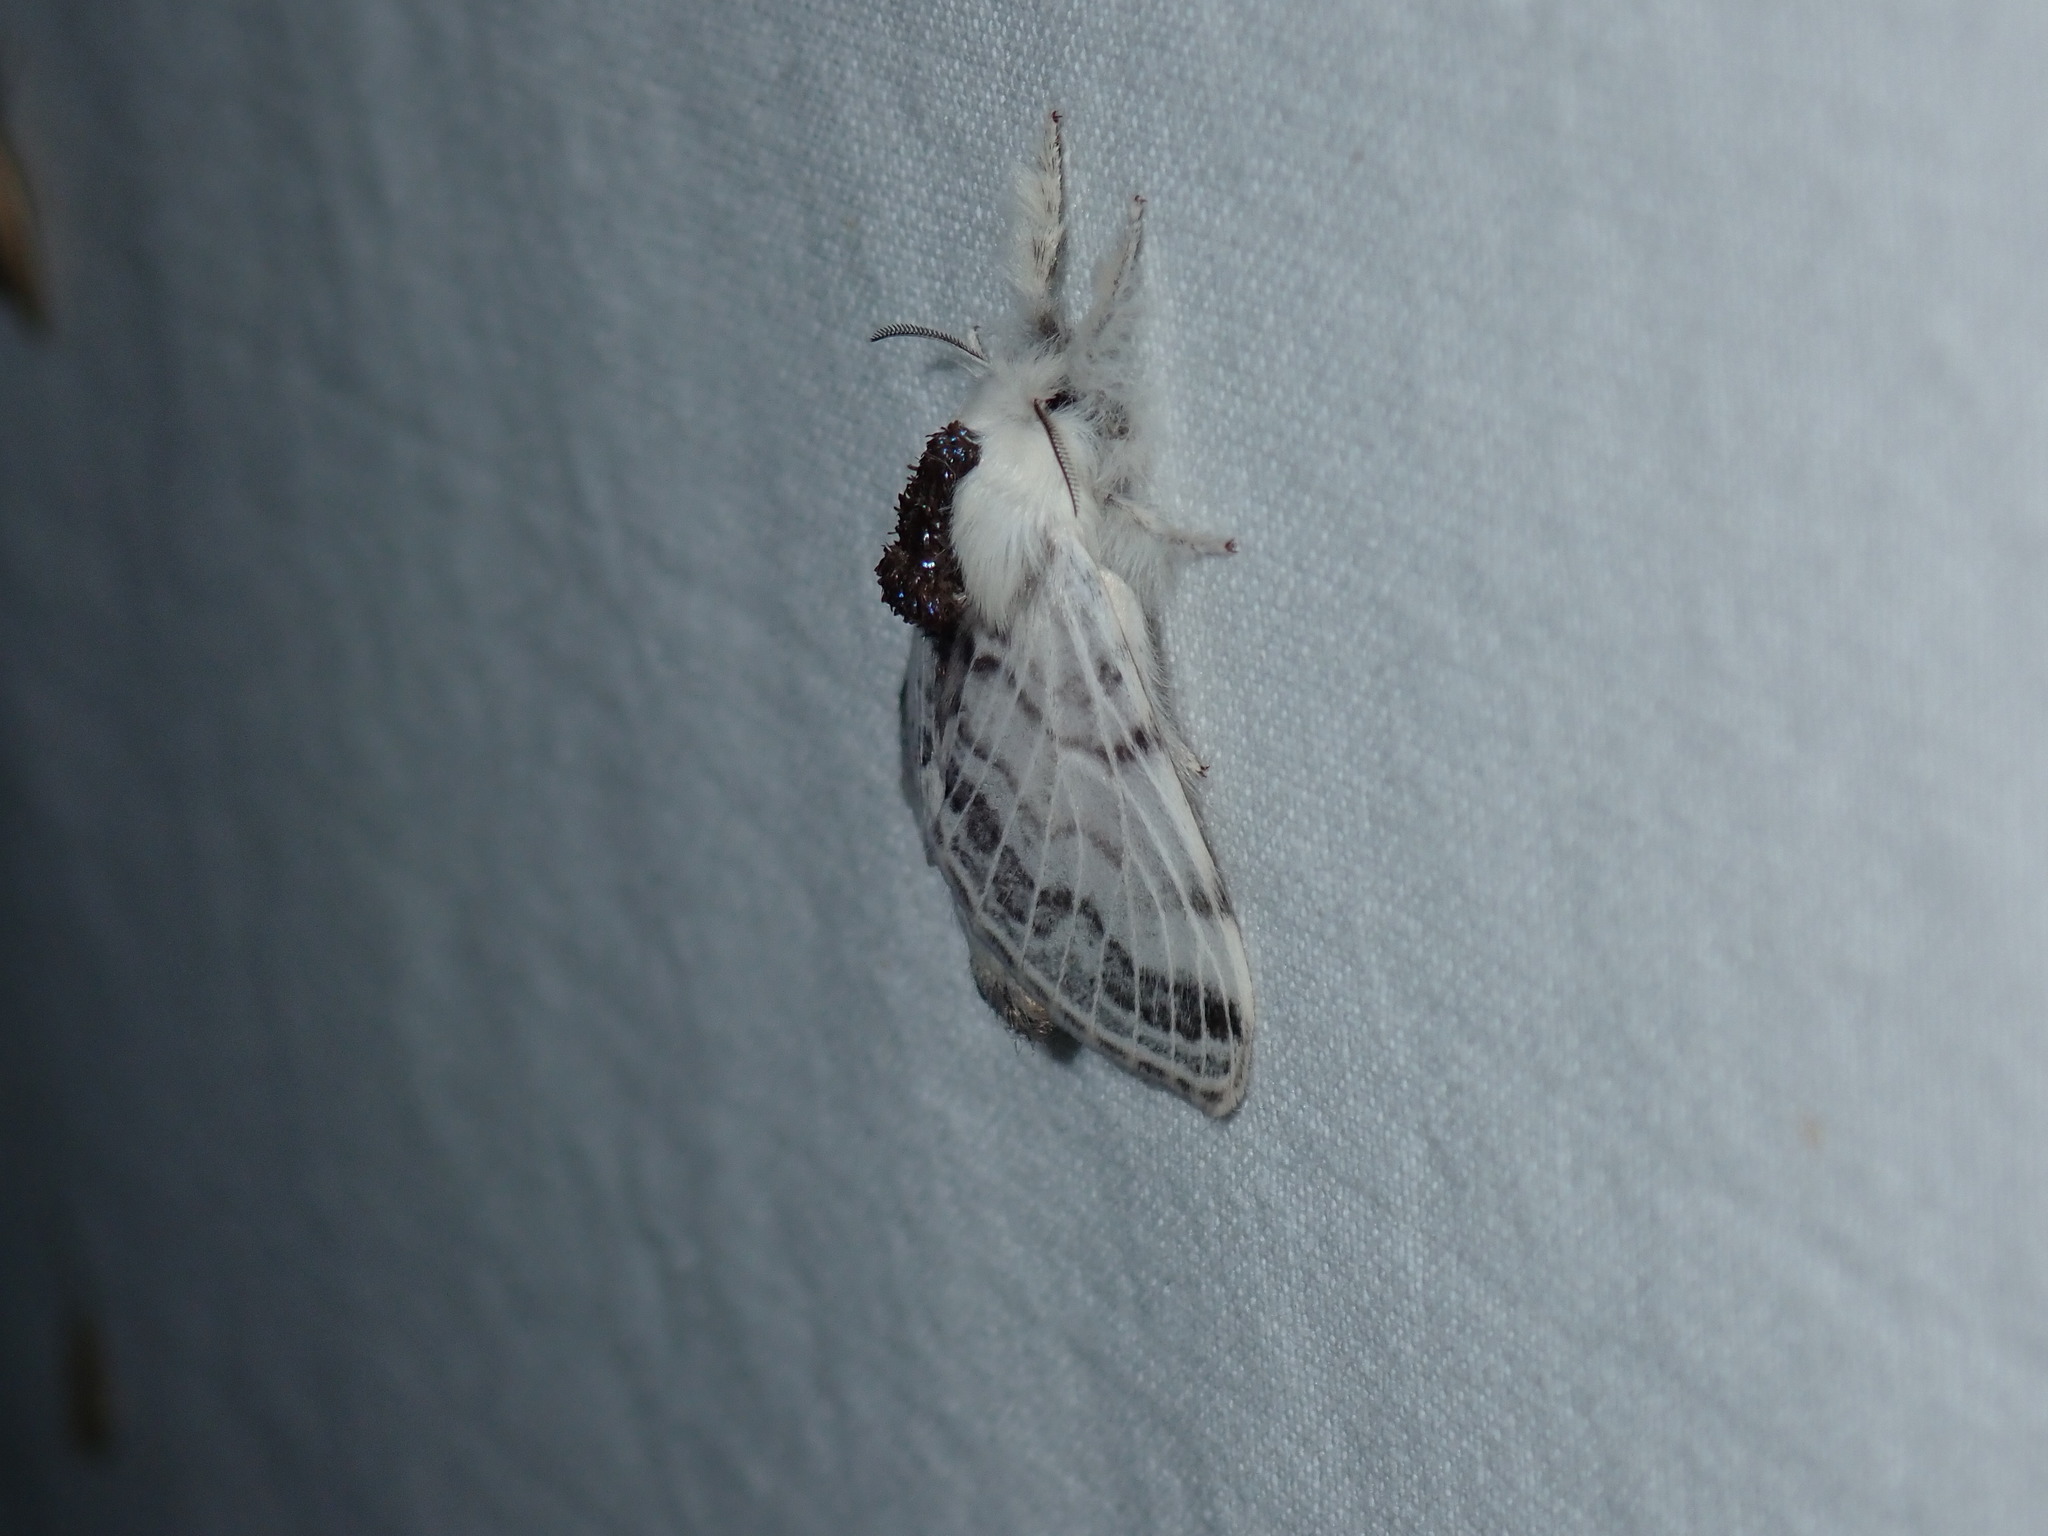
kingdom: Animalia
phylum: Arthropoda
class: Insecta
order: Lepidoptera
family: Lasiocampidae
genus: Tolype
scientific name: Tolype velleda
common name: Large tolype moth
